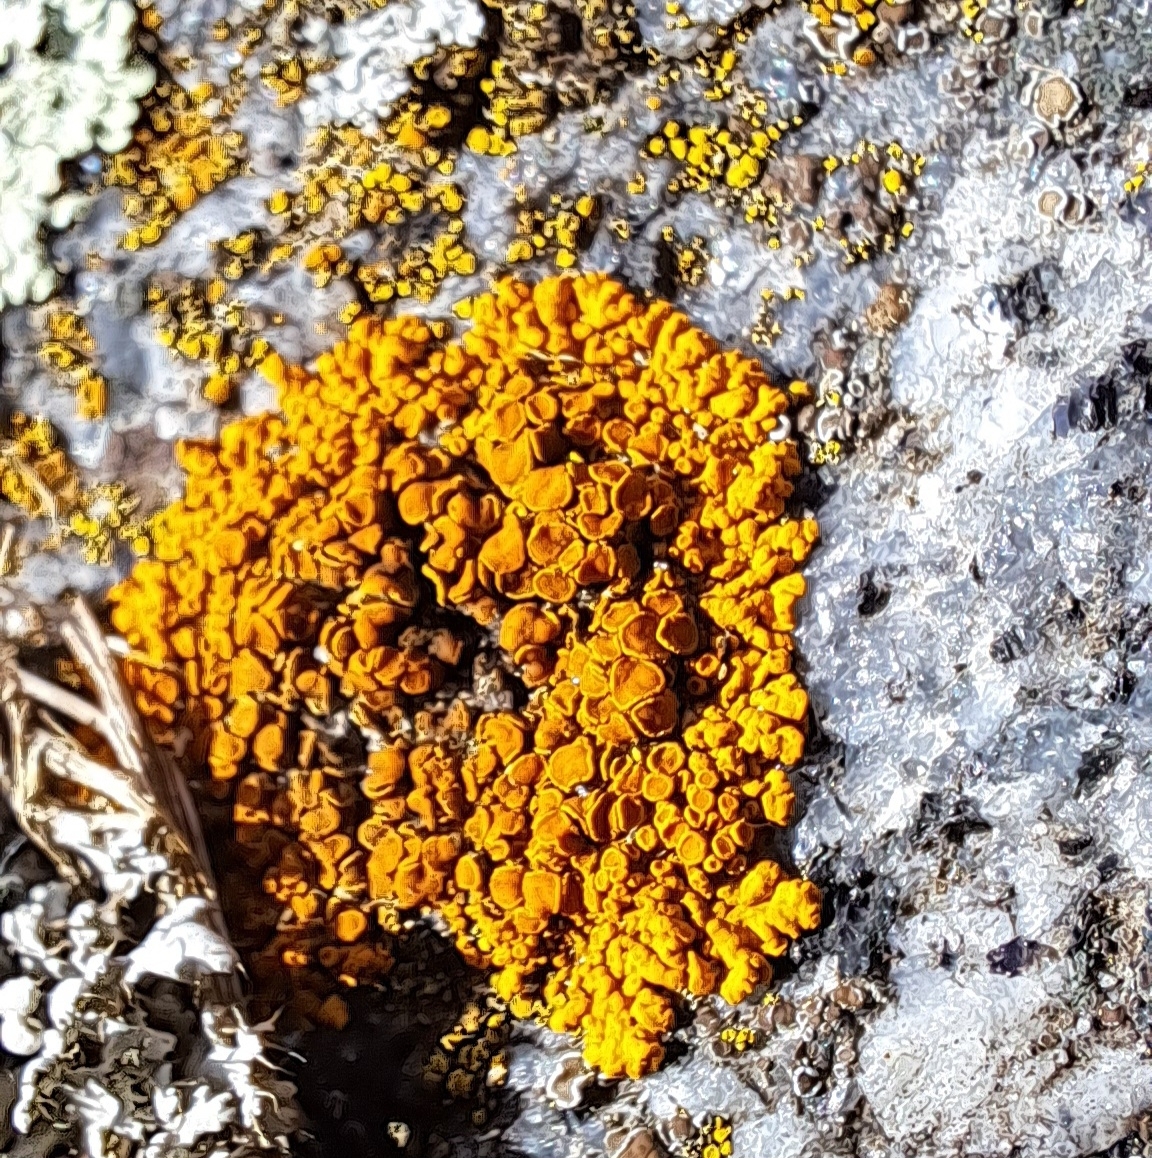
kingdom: Fungi
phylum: Ascomycota
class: Lecanoromycetes
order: Teloschistales
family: Teloschistaceae
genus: Xanthoria
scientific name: Xanthoria elegans
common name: Elegant sunburst lichen
